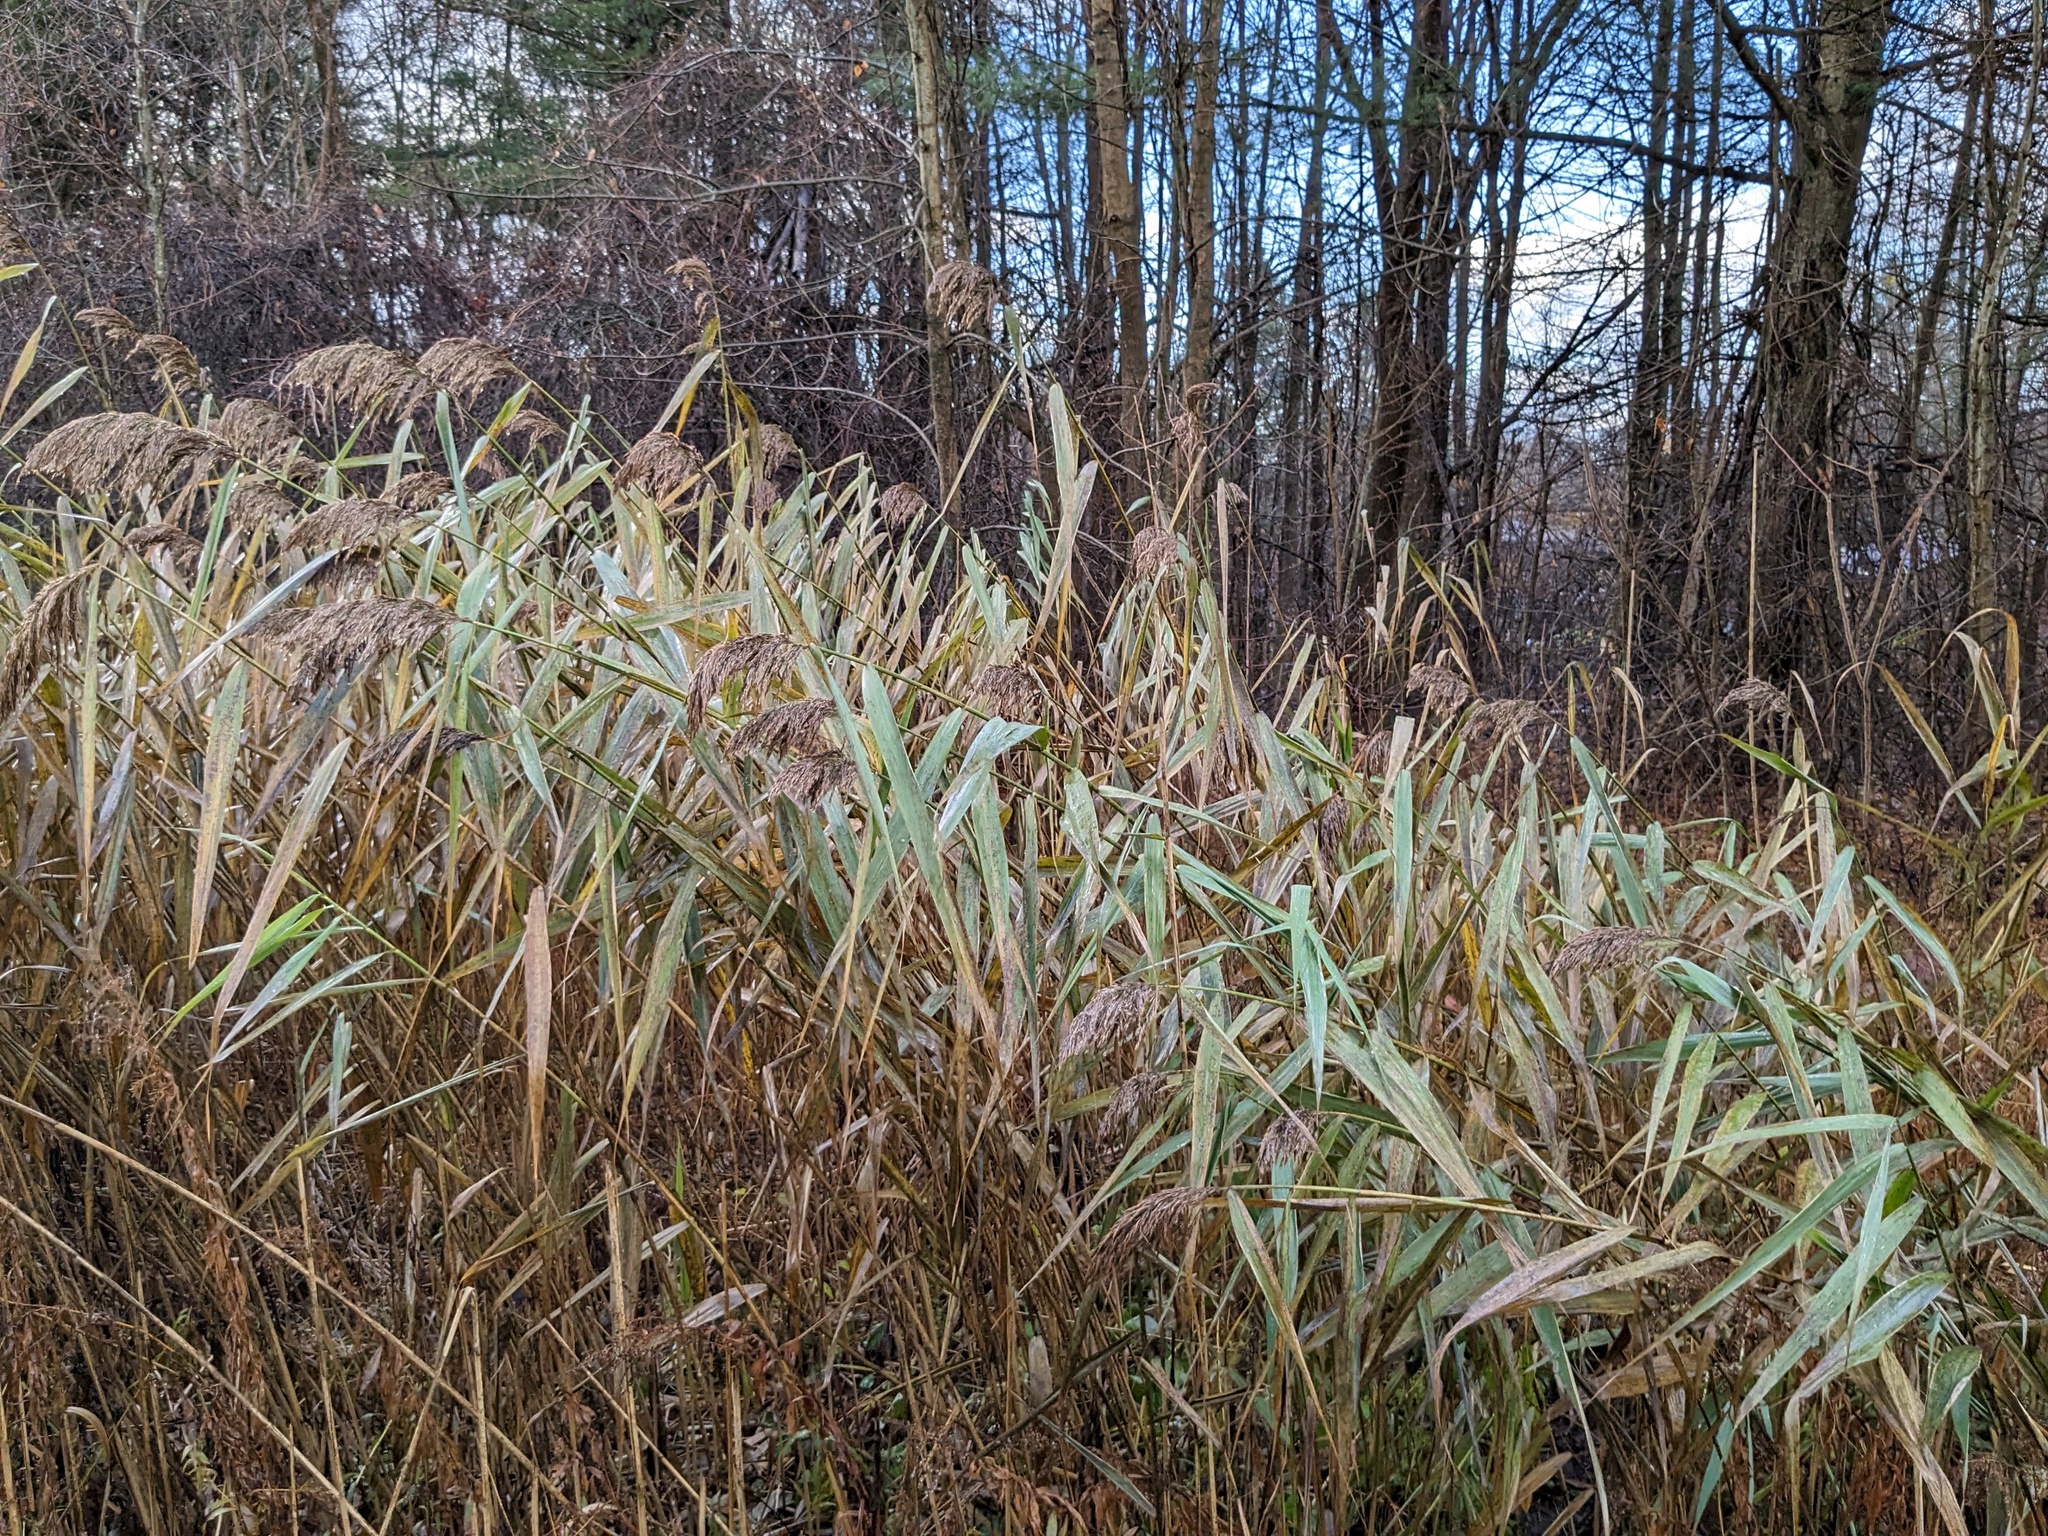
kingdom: Plantae
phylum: Tracheophyta
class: Liliopsida
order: Poales
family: Poaceae
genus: Phragmites
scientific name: Phragmites australis
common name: Common reed
